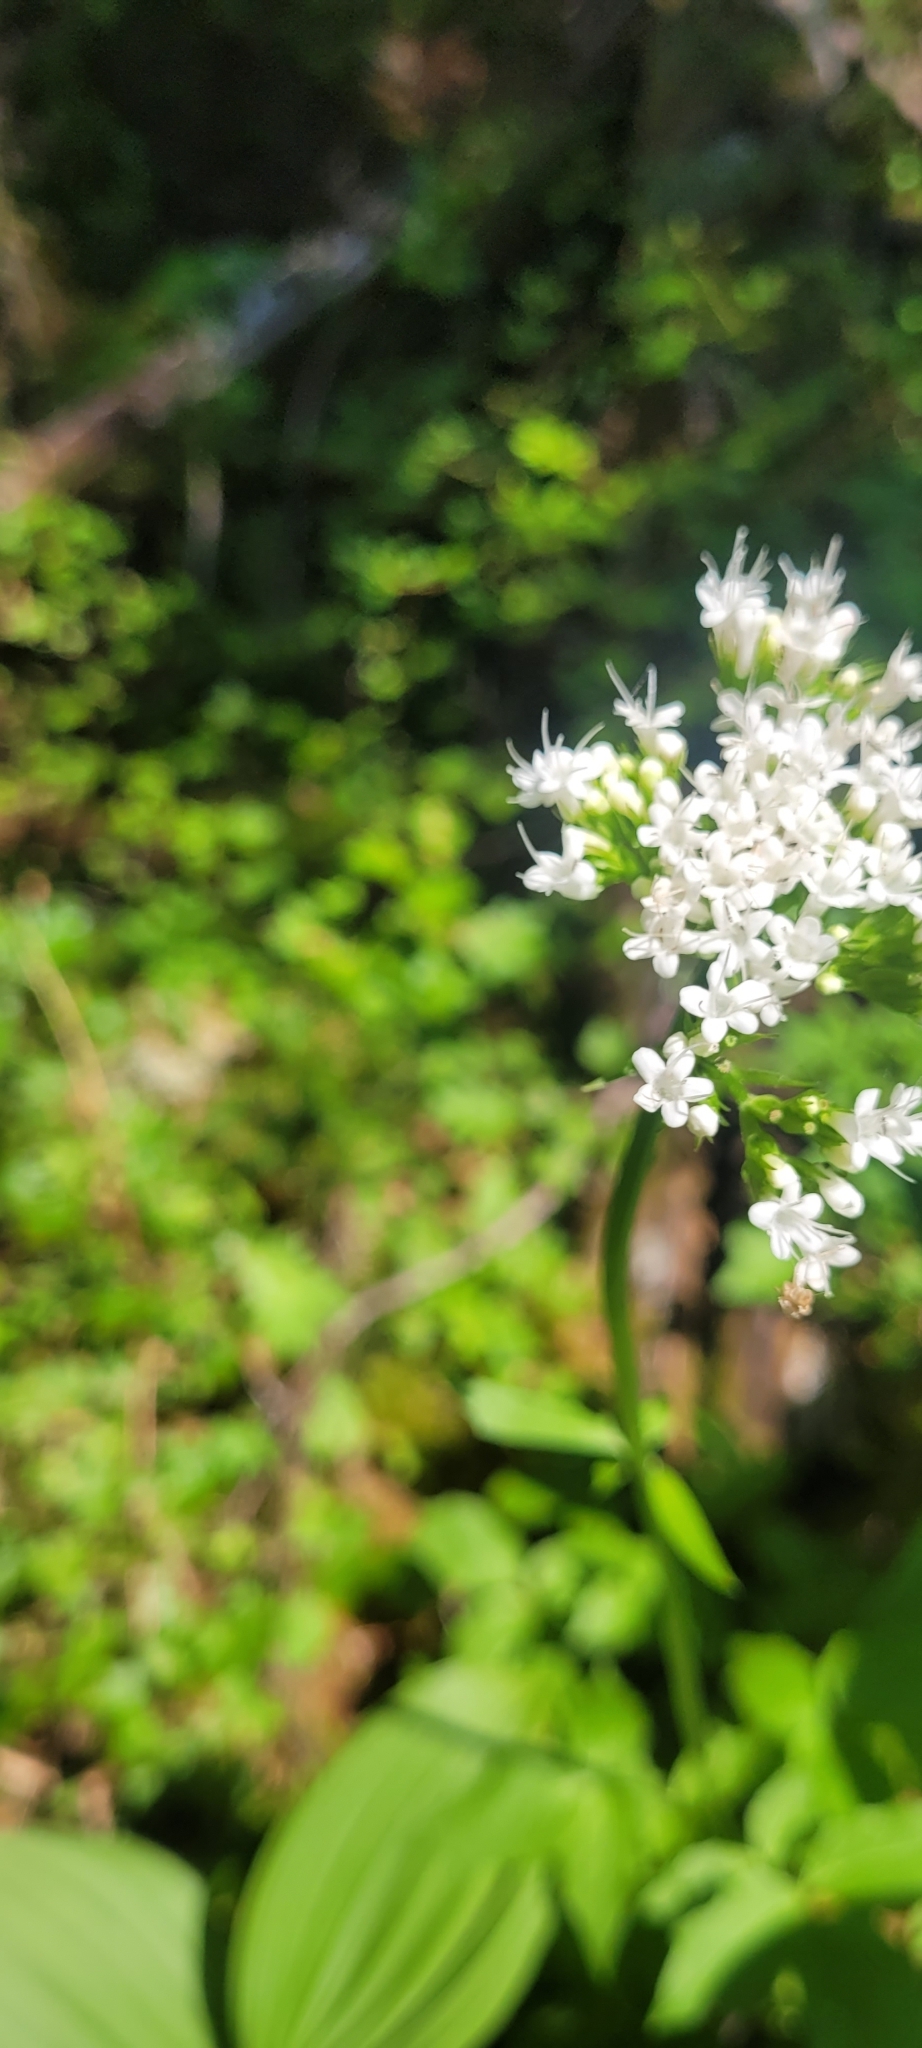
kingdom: Plantae
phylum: Tracheophyta
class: Magnoliopsida
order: Dipsacales
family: Caprifoliaceae
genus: Valeriana
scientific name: Valeriana sitchensis
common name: Pacific valerian
